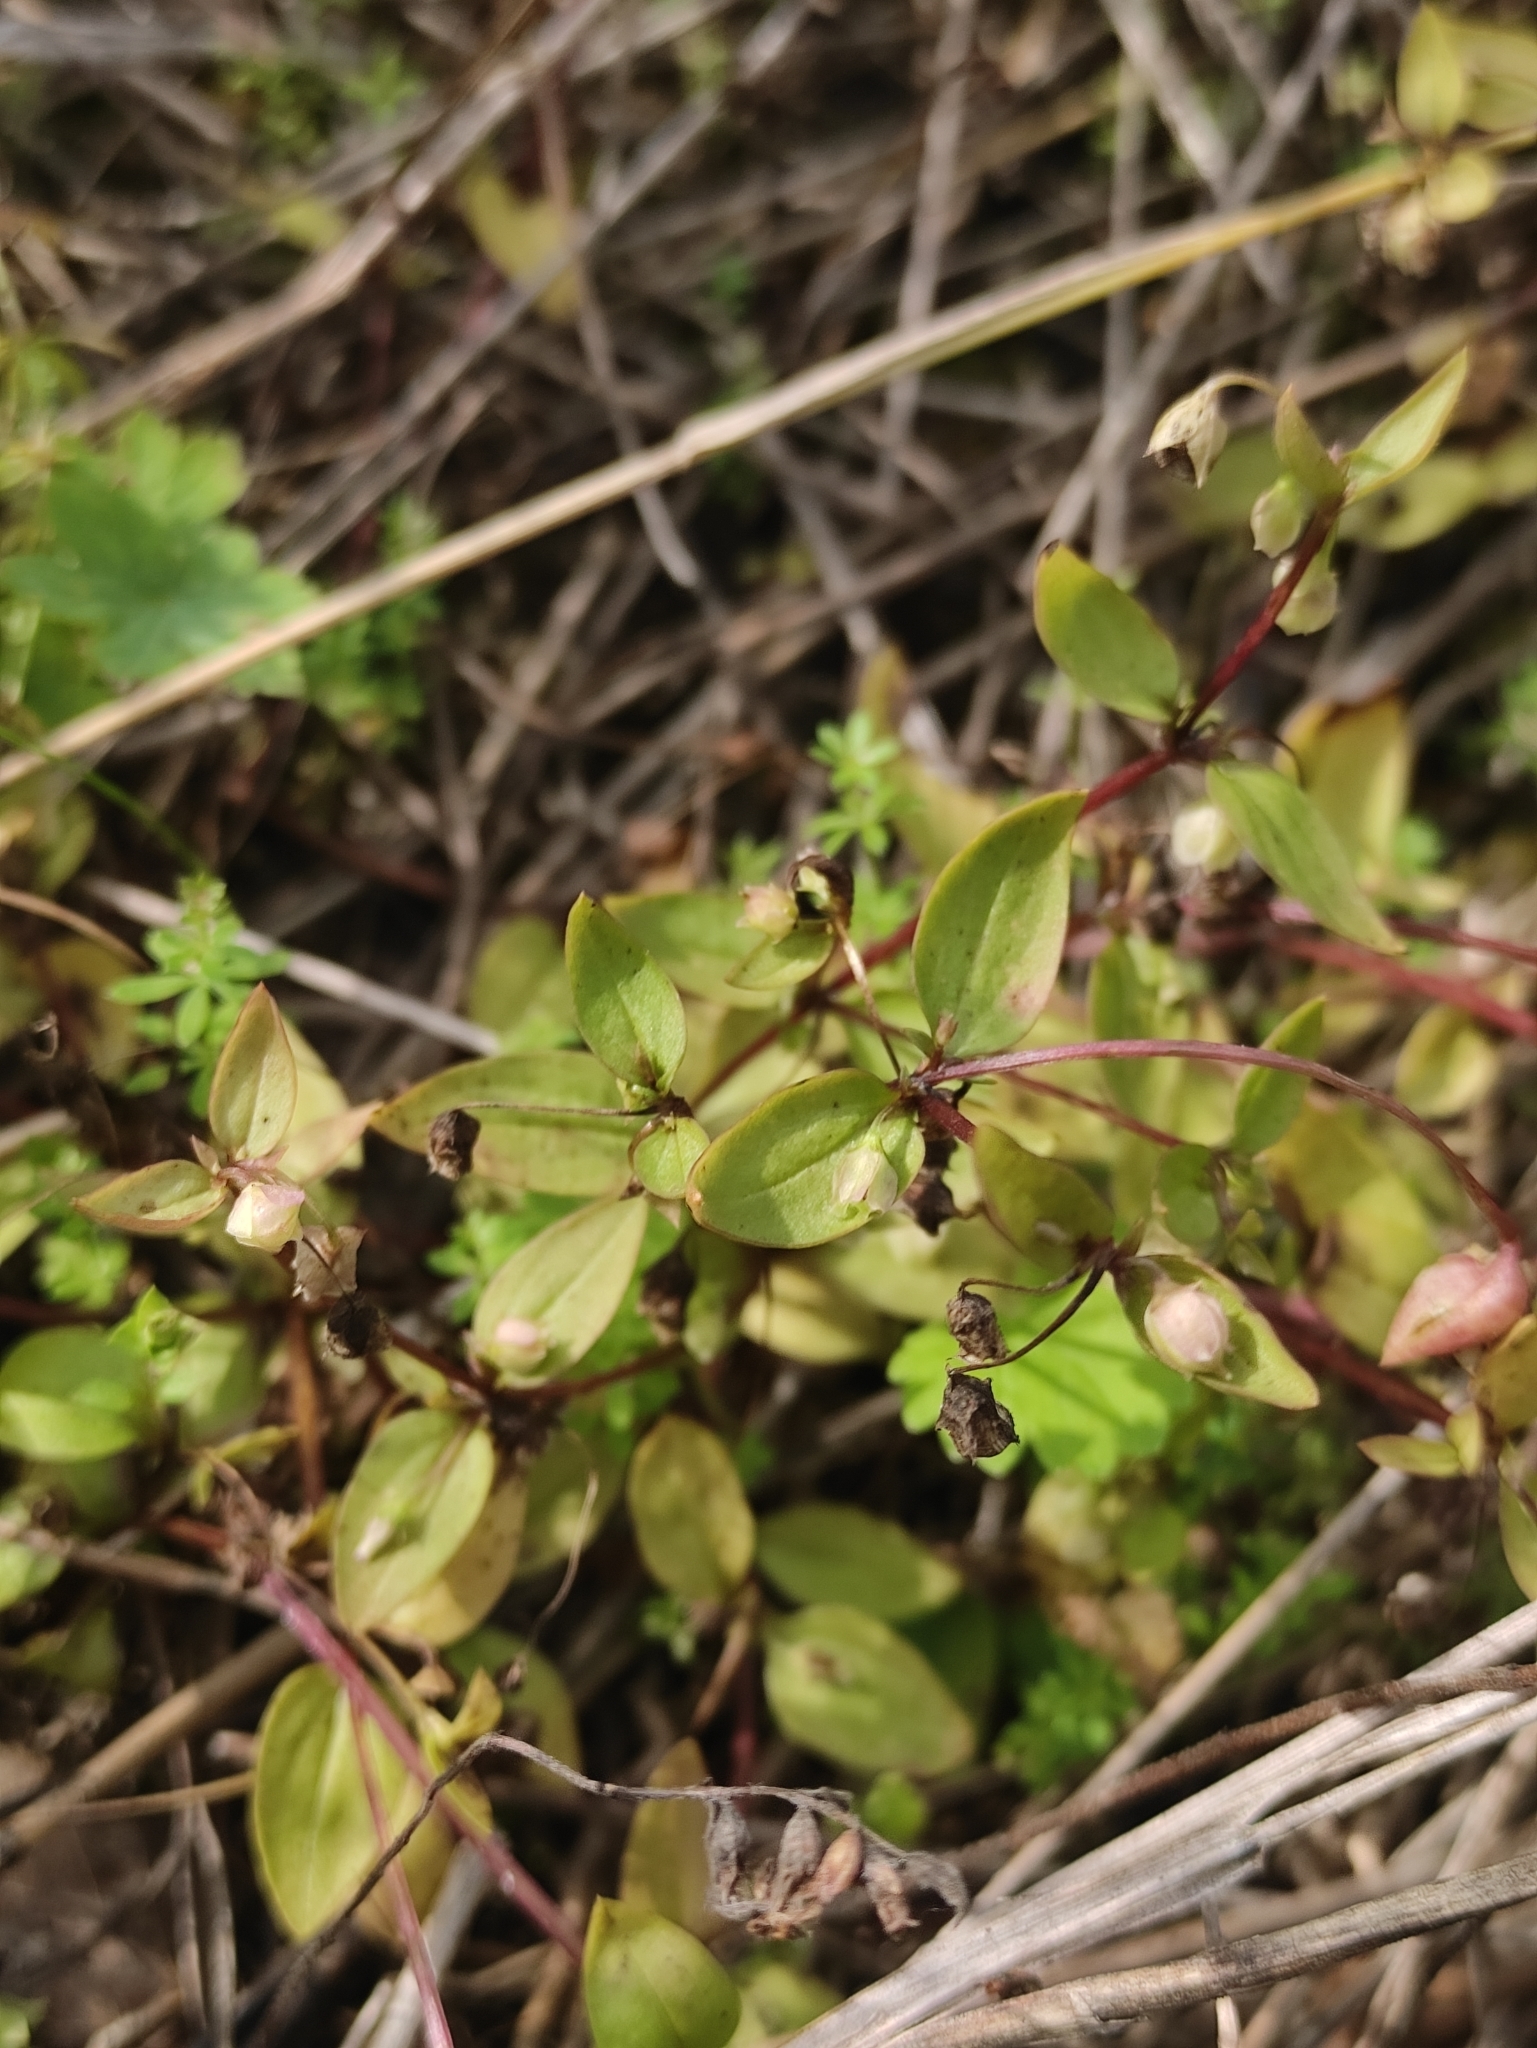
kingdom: Plantae
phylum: Tracheophyta
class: Magnoliopsida
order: Gentianales
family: Gentianaceae
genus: Swertia
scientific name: Swertia dichotoma
